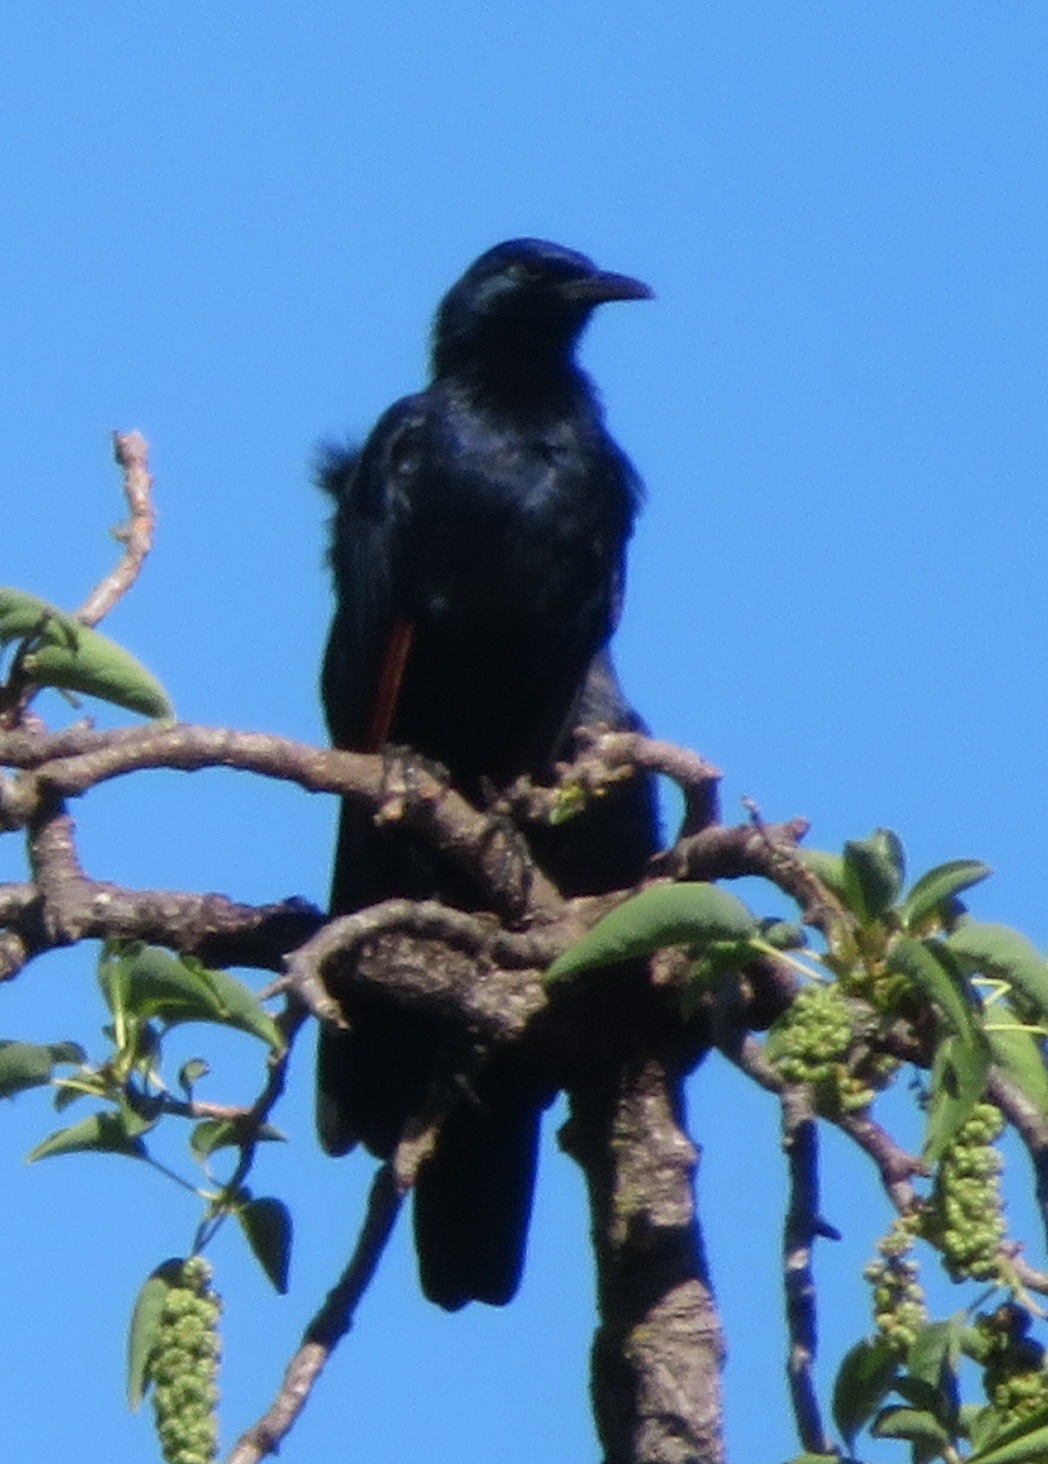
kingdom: Animalia
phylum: Chordata
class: Aves
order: Passeriformes
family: Sturnidae
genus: Onychognathus
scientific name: Onychognathus morio
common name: Red-winged starling
